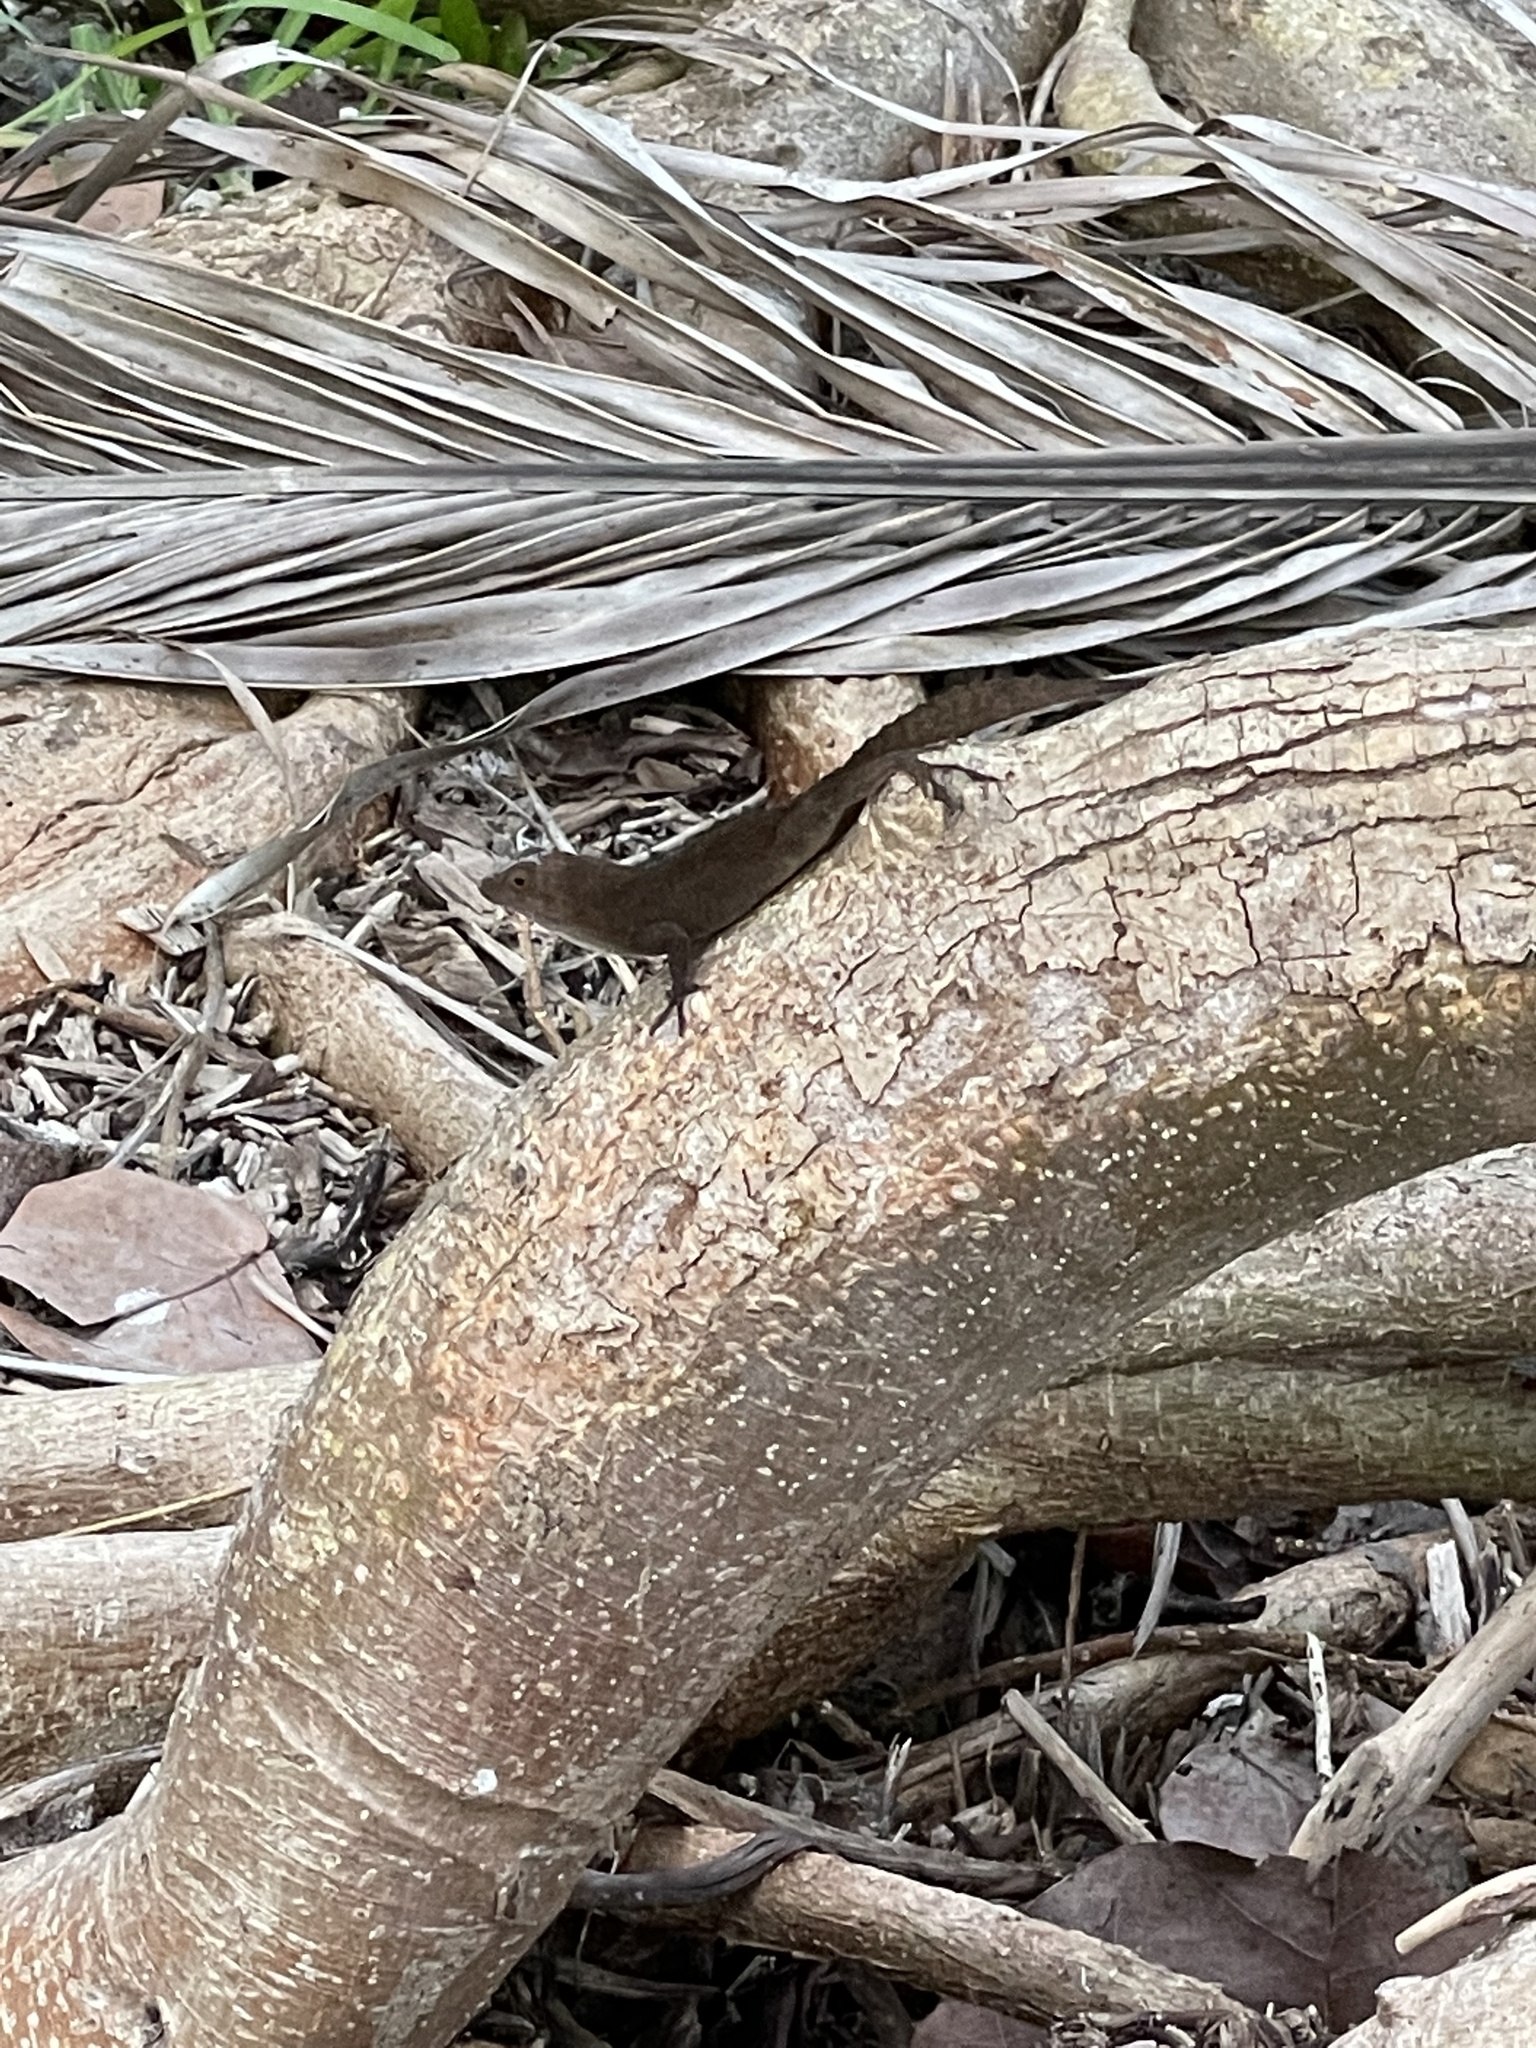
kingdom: Animalia
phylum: Chordata
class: Squamata
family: Dactyloidae
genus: Anolis
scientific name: Anolis cristatellus
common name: Crested anole
